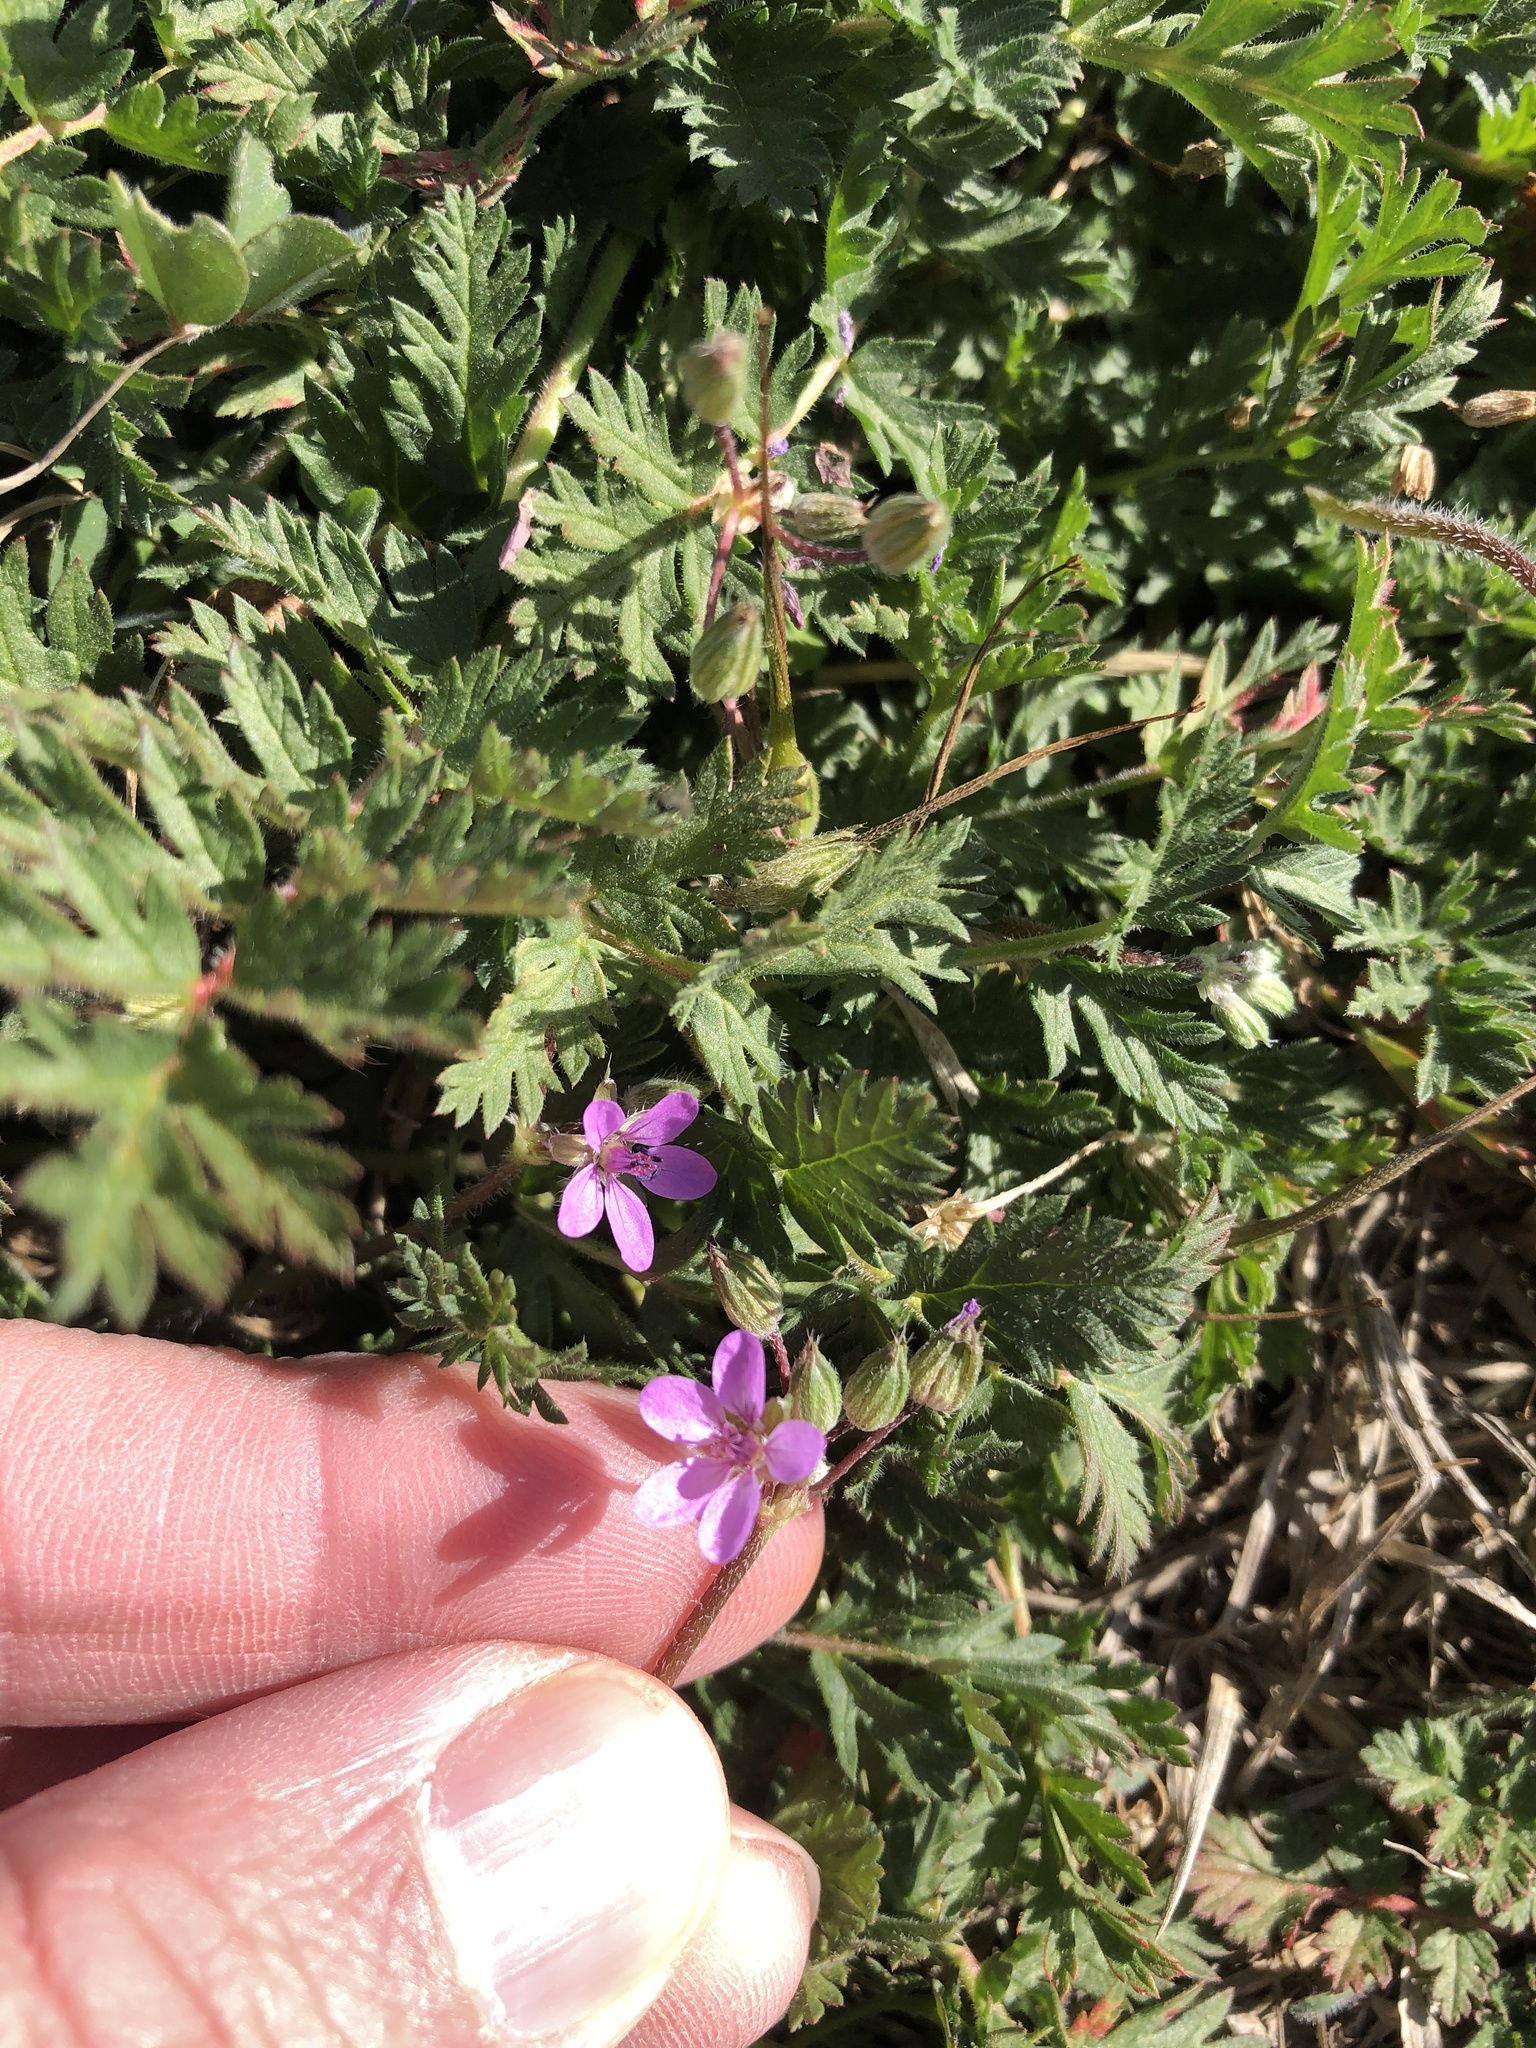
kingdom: Plantae
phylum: Tracheophyta
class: Magnoliopsida
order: Geraniales
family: Geraniaceae
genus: Erodium
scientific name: Erodium cicutarium
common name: Common stork's-bill
